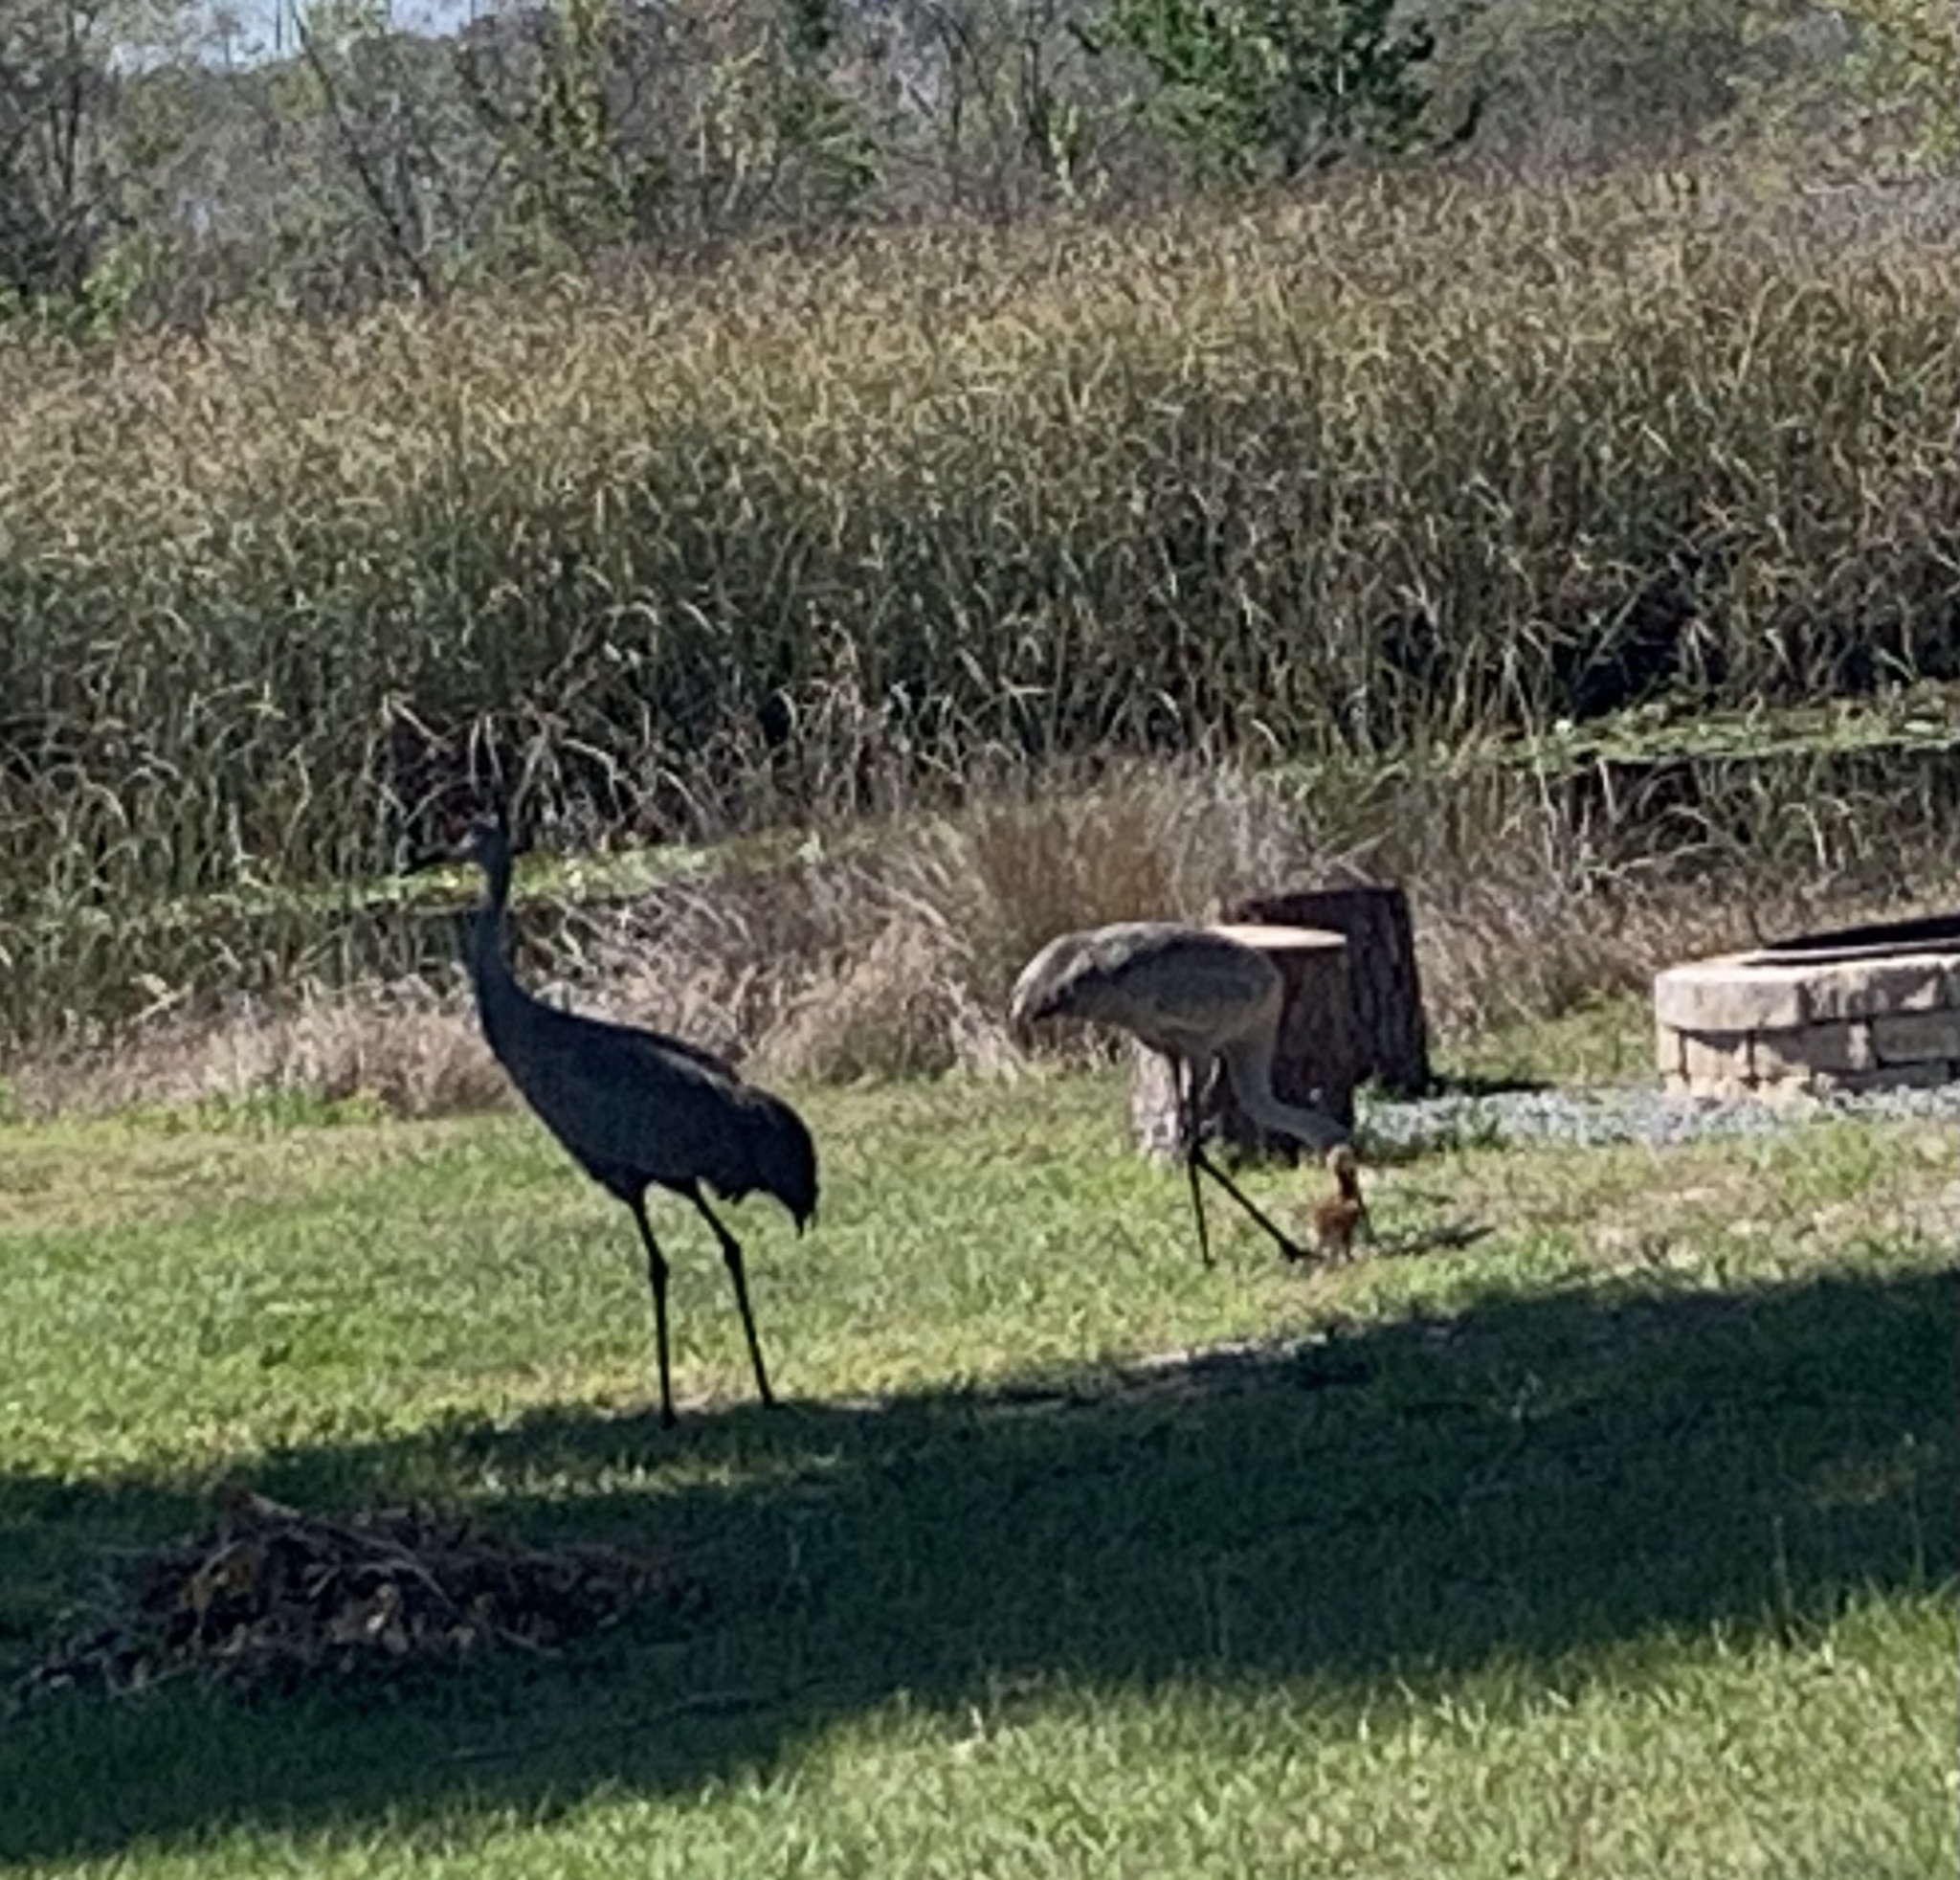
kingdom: Animalia
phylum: Chordata
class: Aves
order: Gruiformes
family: Gruidae
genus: Grus
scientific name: Grus canadensis
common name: Sandhill crane
